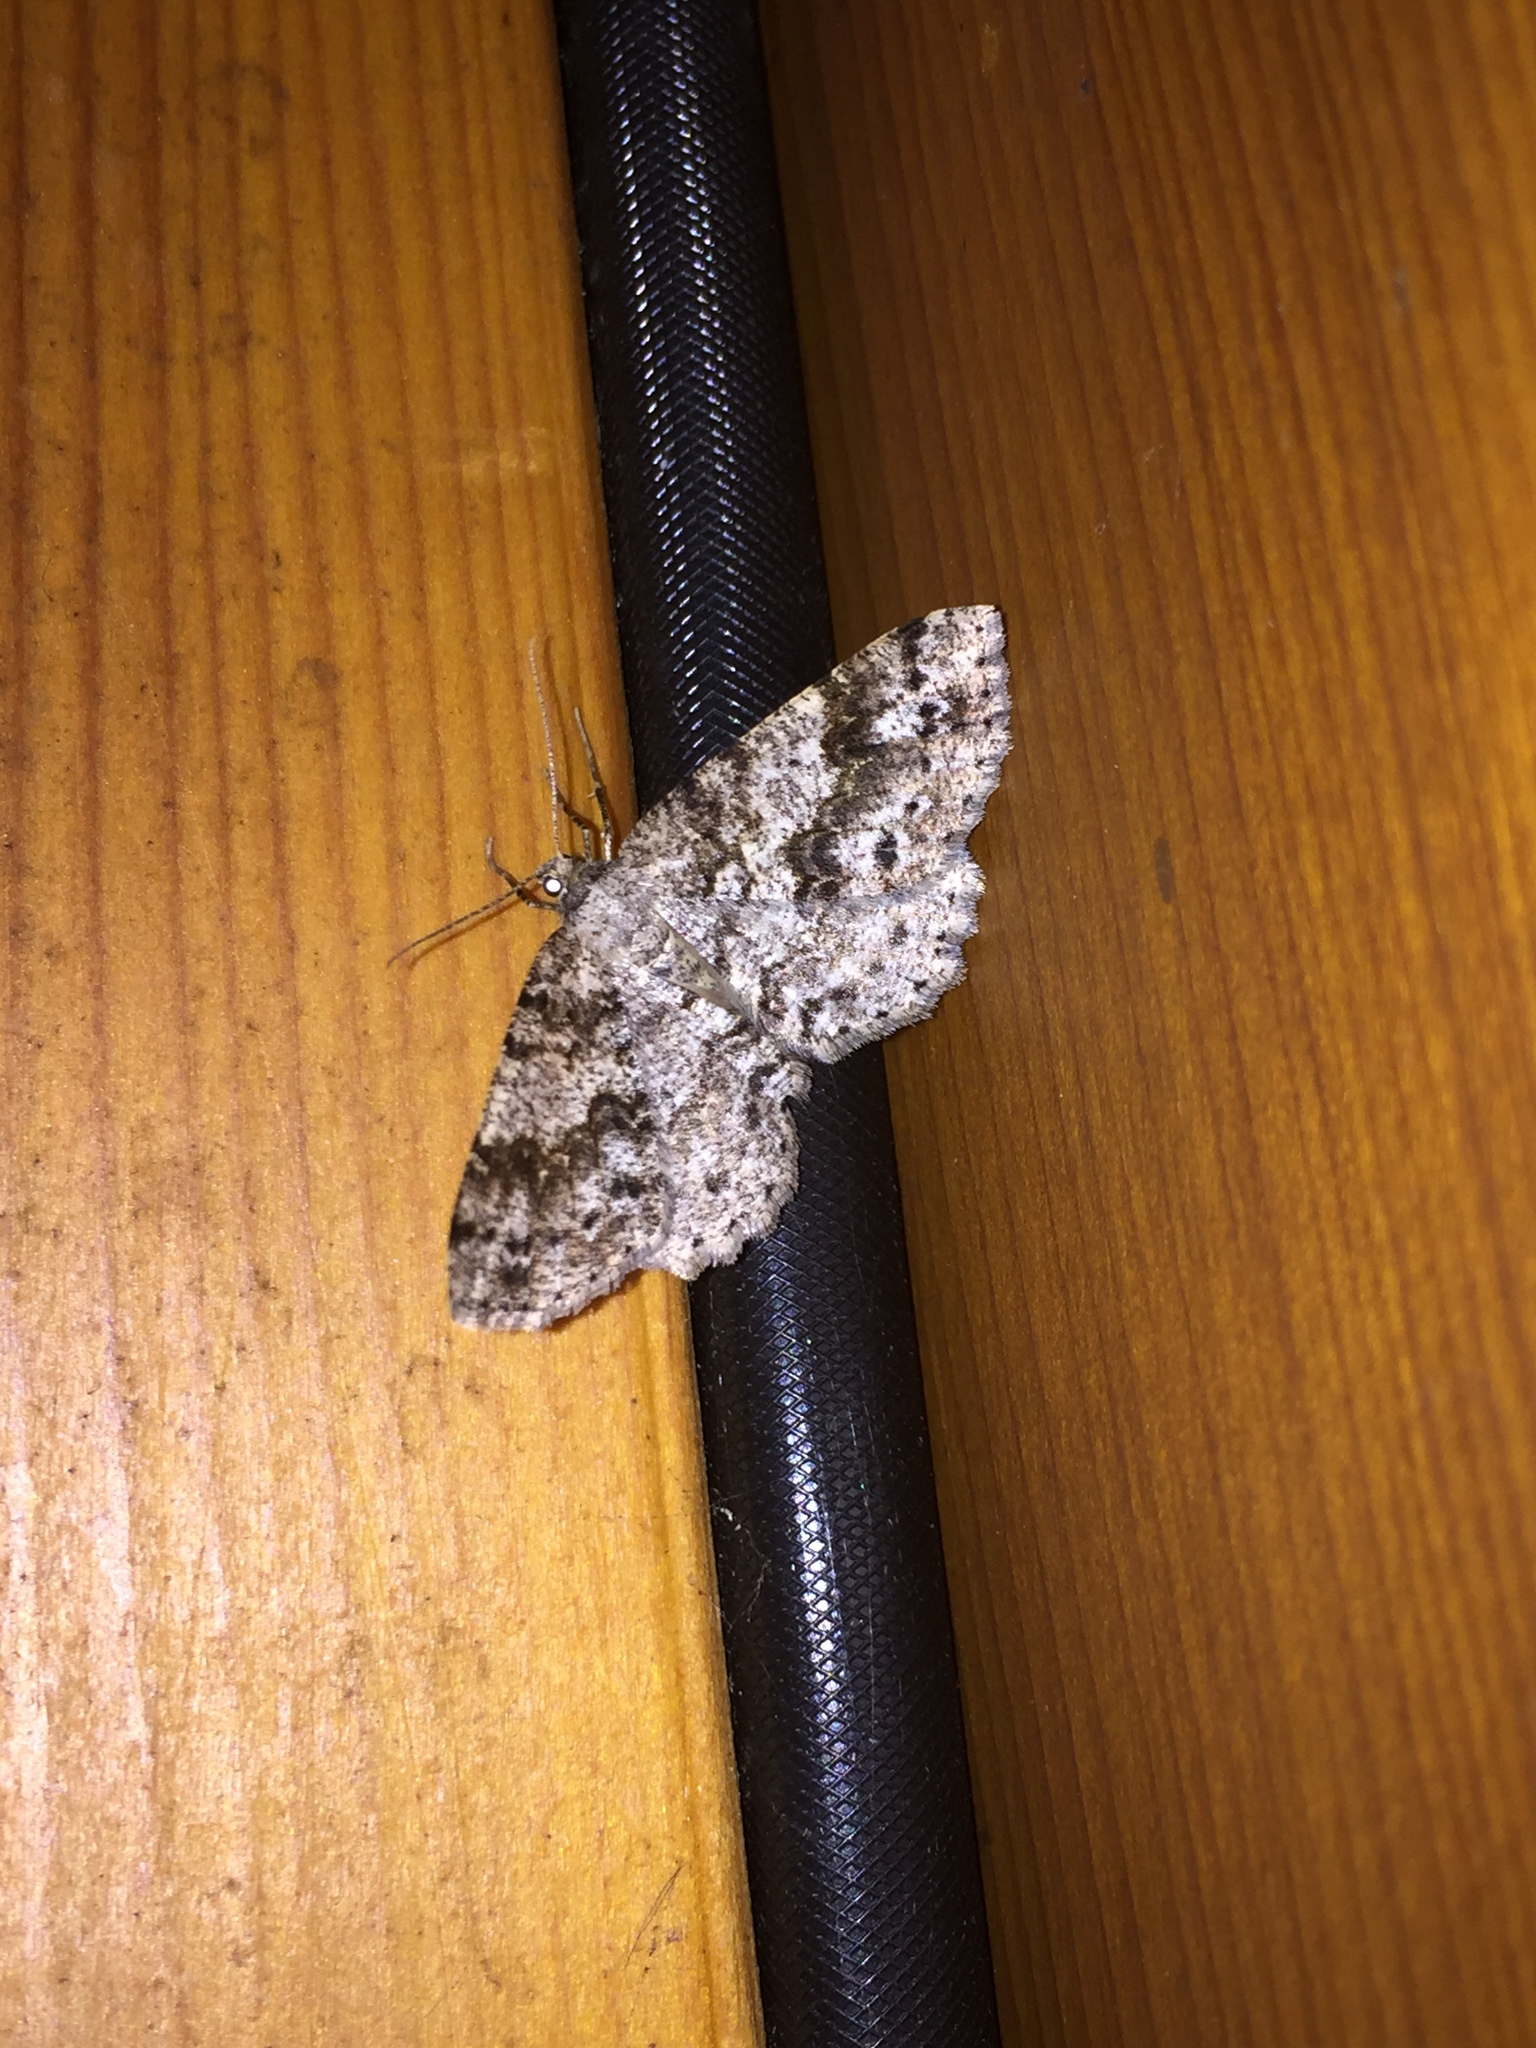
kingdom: Animalia
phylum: Arthropoda
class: Insecta
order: Lepidoptera
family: Geometridae
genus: Melanolophia
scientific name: Melanolophia imitata
